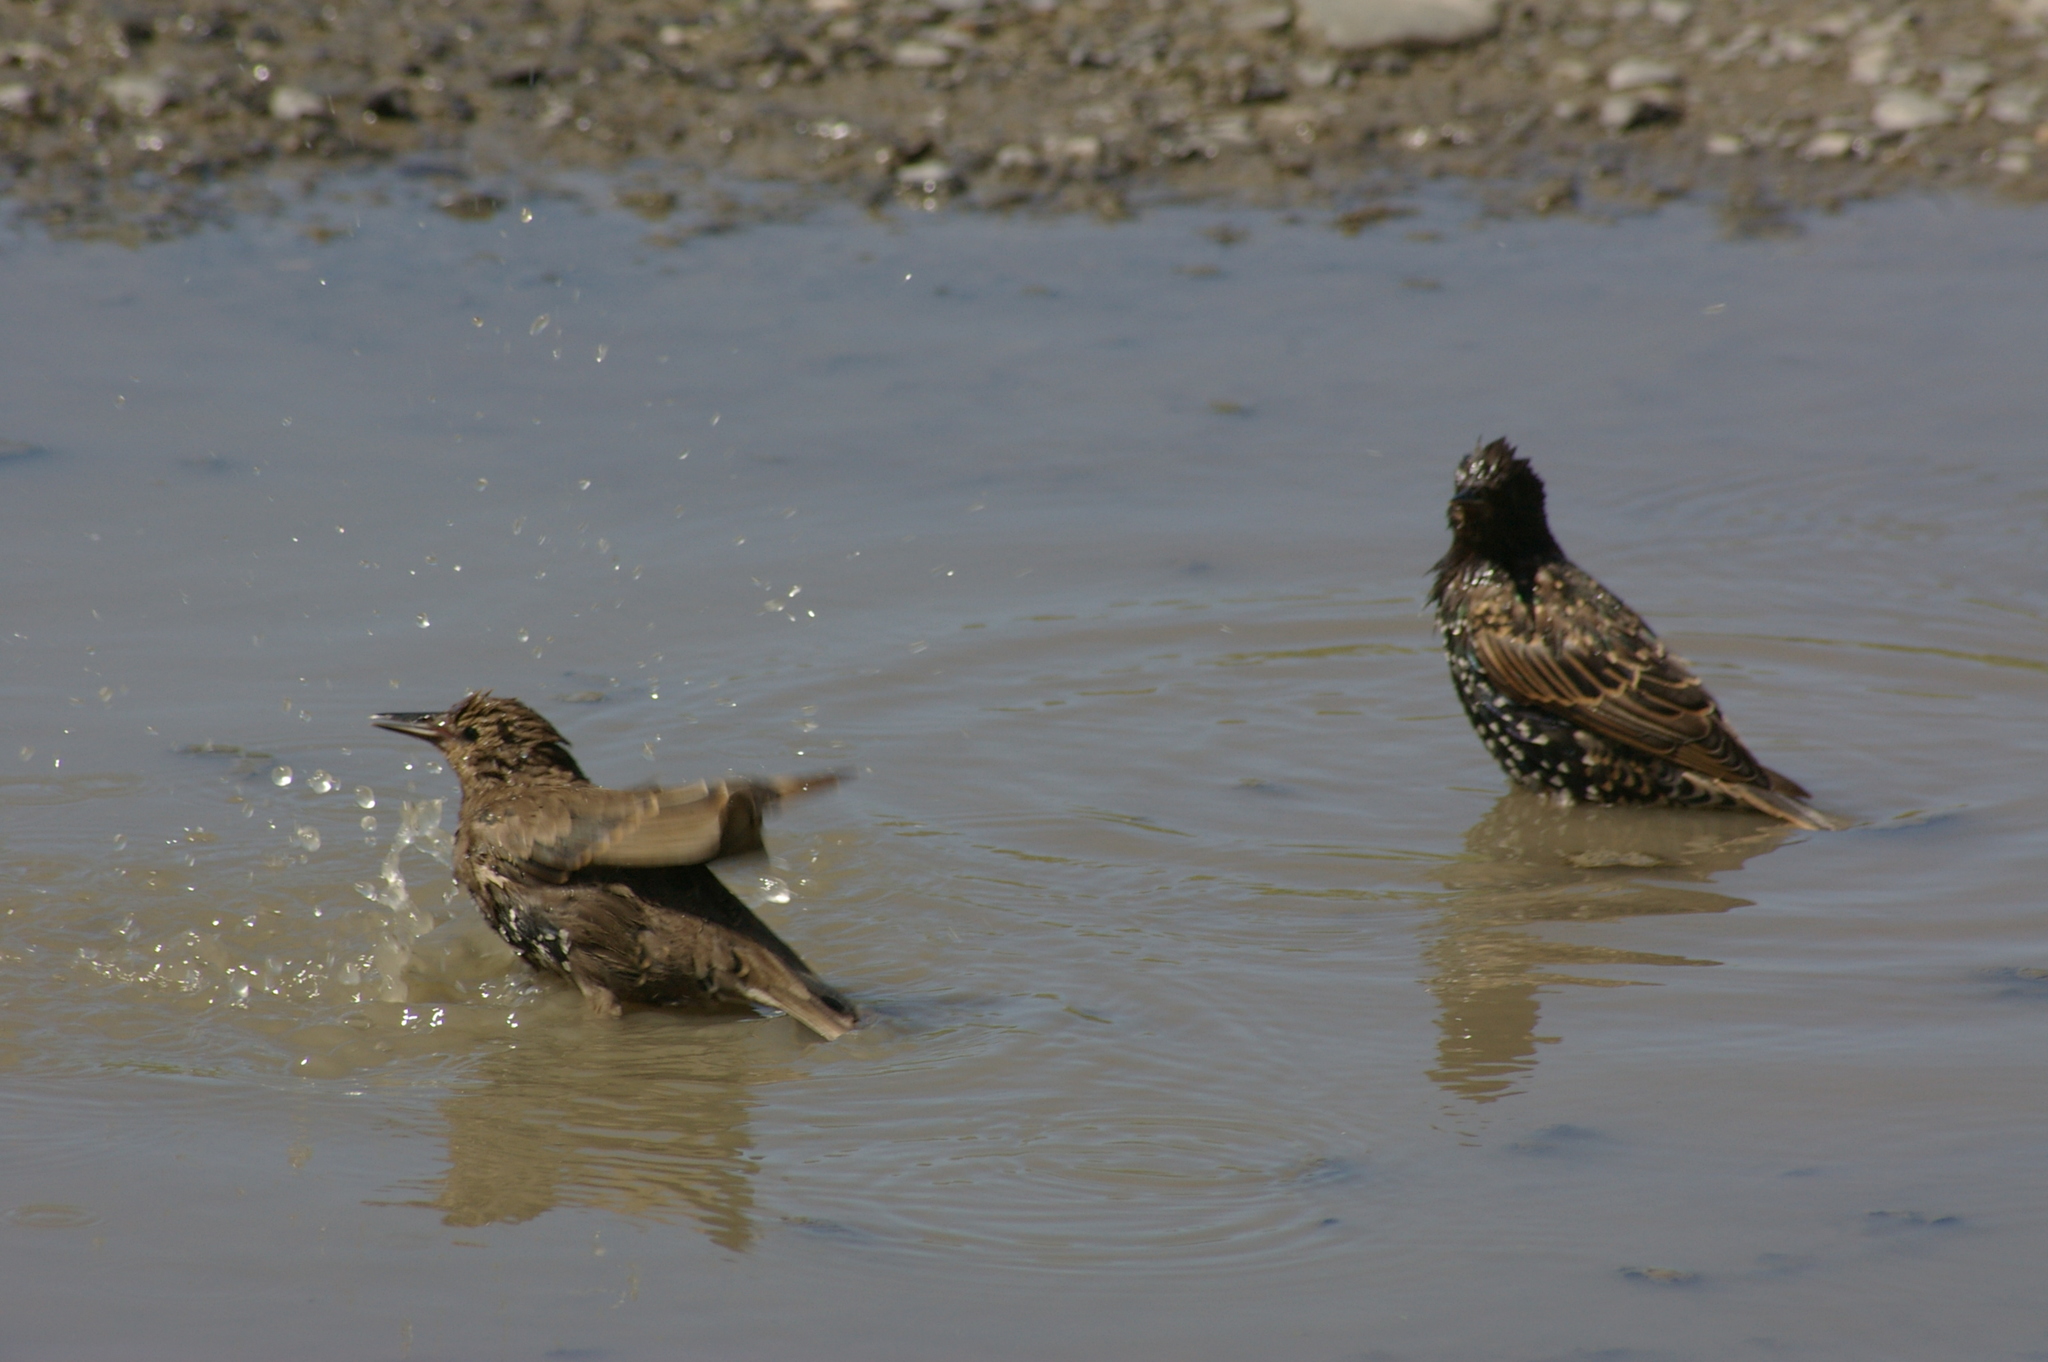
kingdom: Animalia
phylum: Chordata
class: Aves
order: Passeriformes
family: Sturnidae
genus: Sturnus
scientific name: Sturnus vulgaris
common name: Common starling
